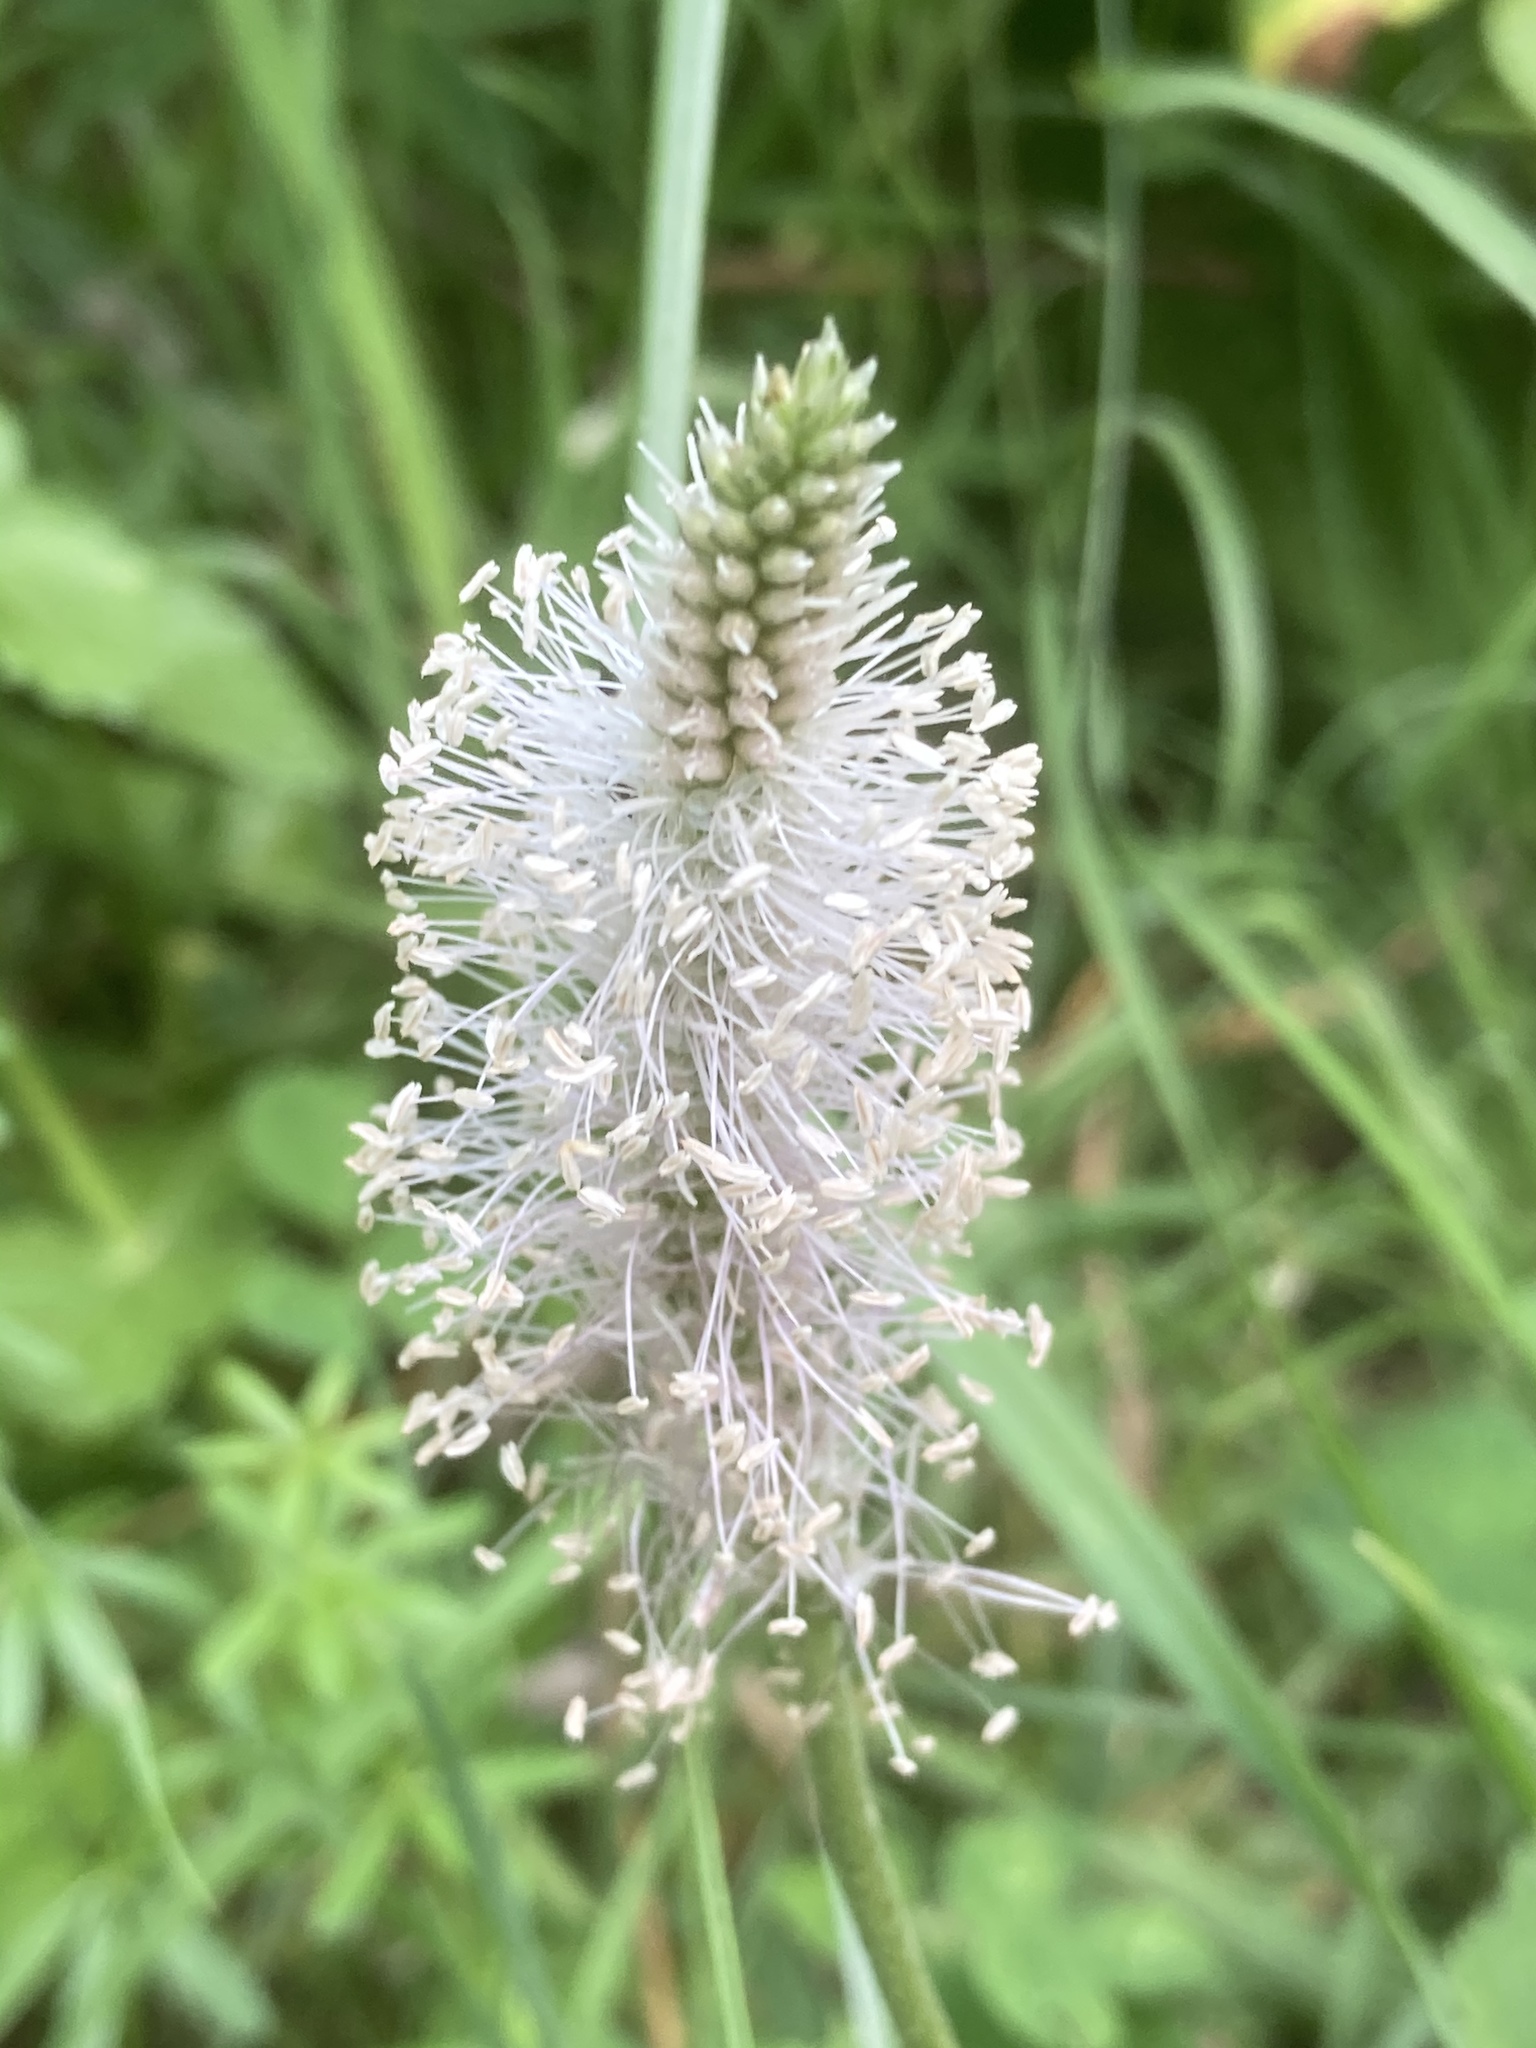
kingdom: Plantae
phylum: Tracheophyta
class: Magnoliopsida
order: Lamiales
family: Plantaginaceae
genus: Plantago
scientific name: Plantago media
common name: Hoary plantain
